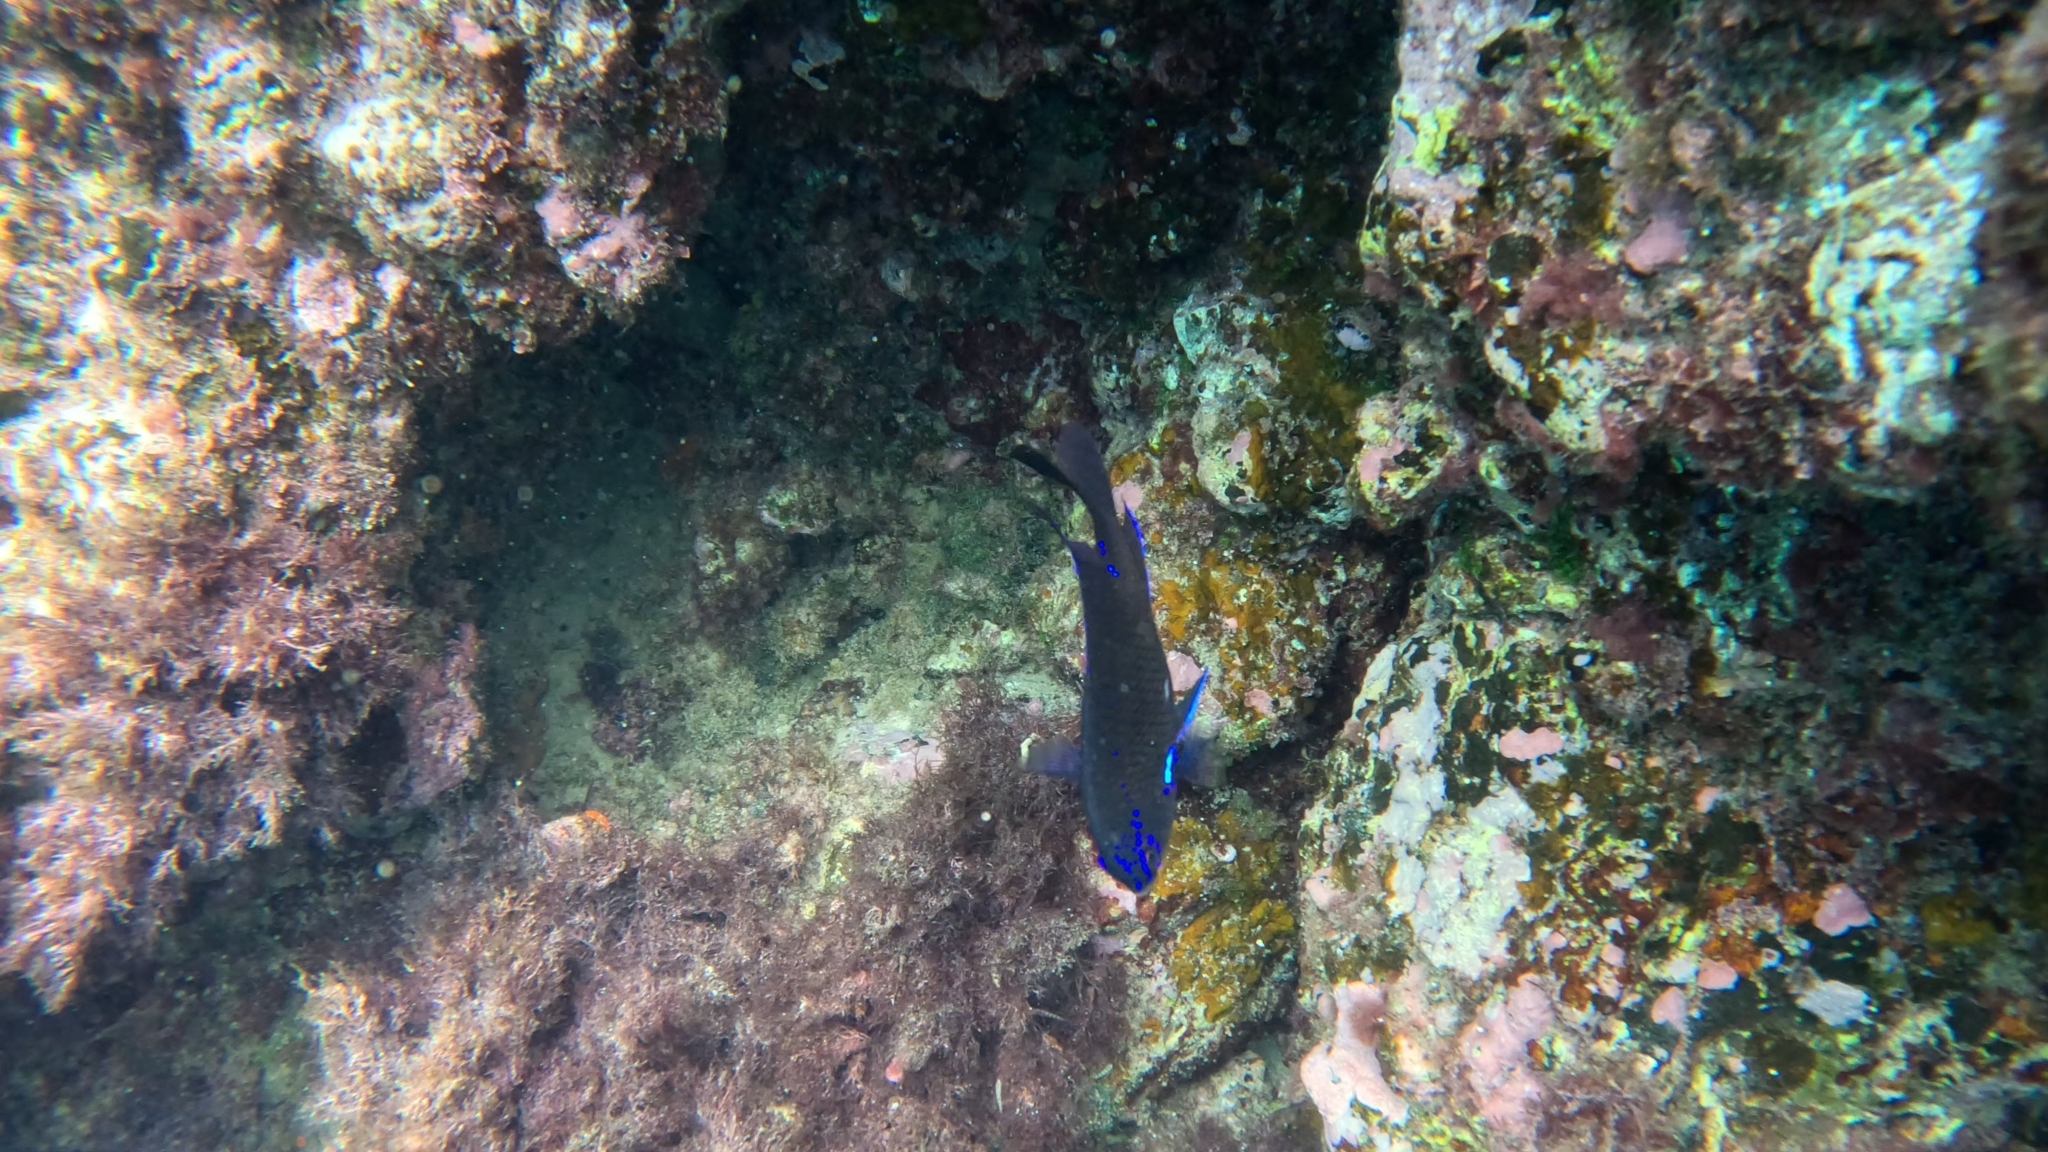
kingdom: Animalia
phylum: Chordata
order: Perciformes
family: Pomacentridae
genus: Similiparma
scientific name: Similiparma lurida
